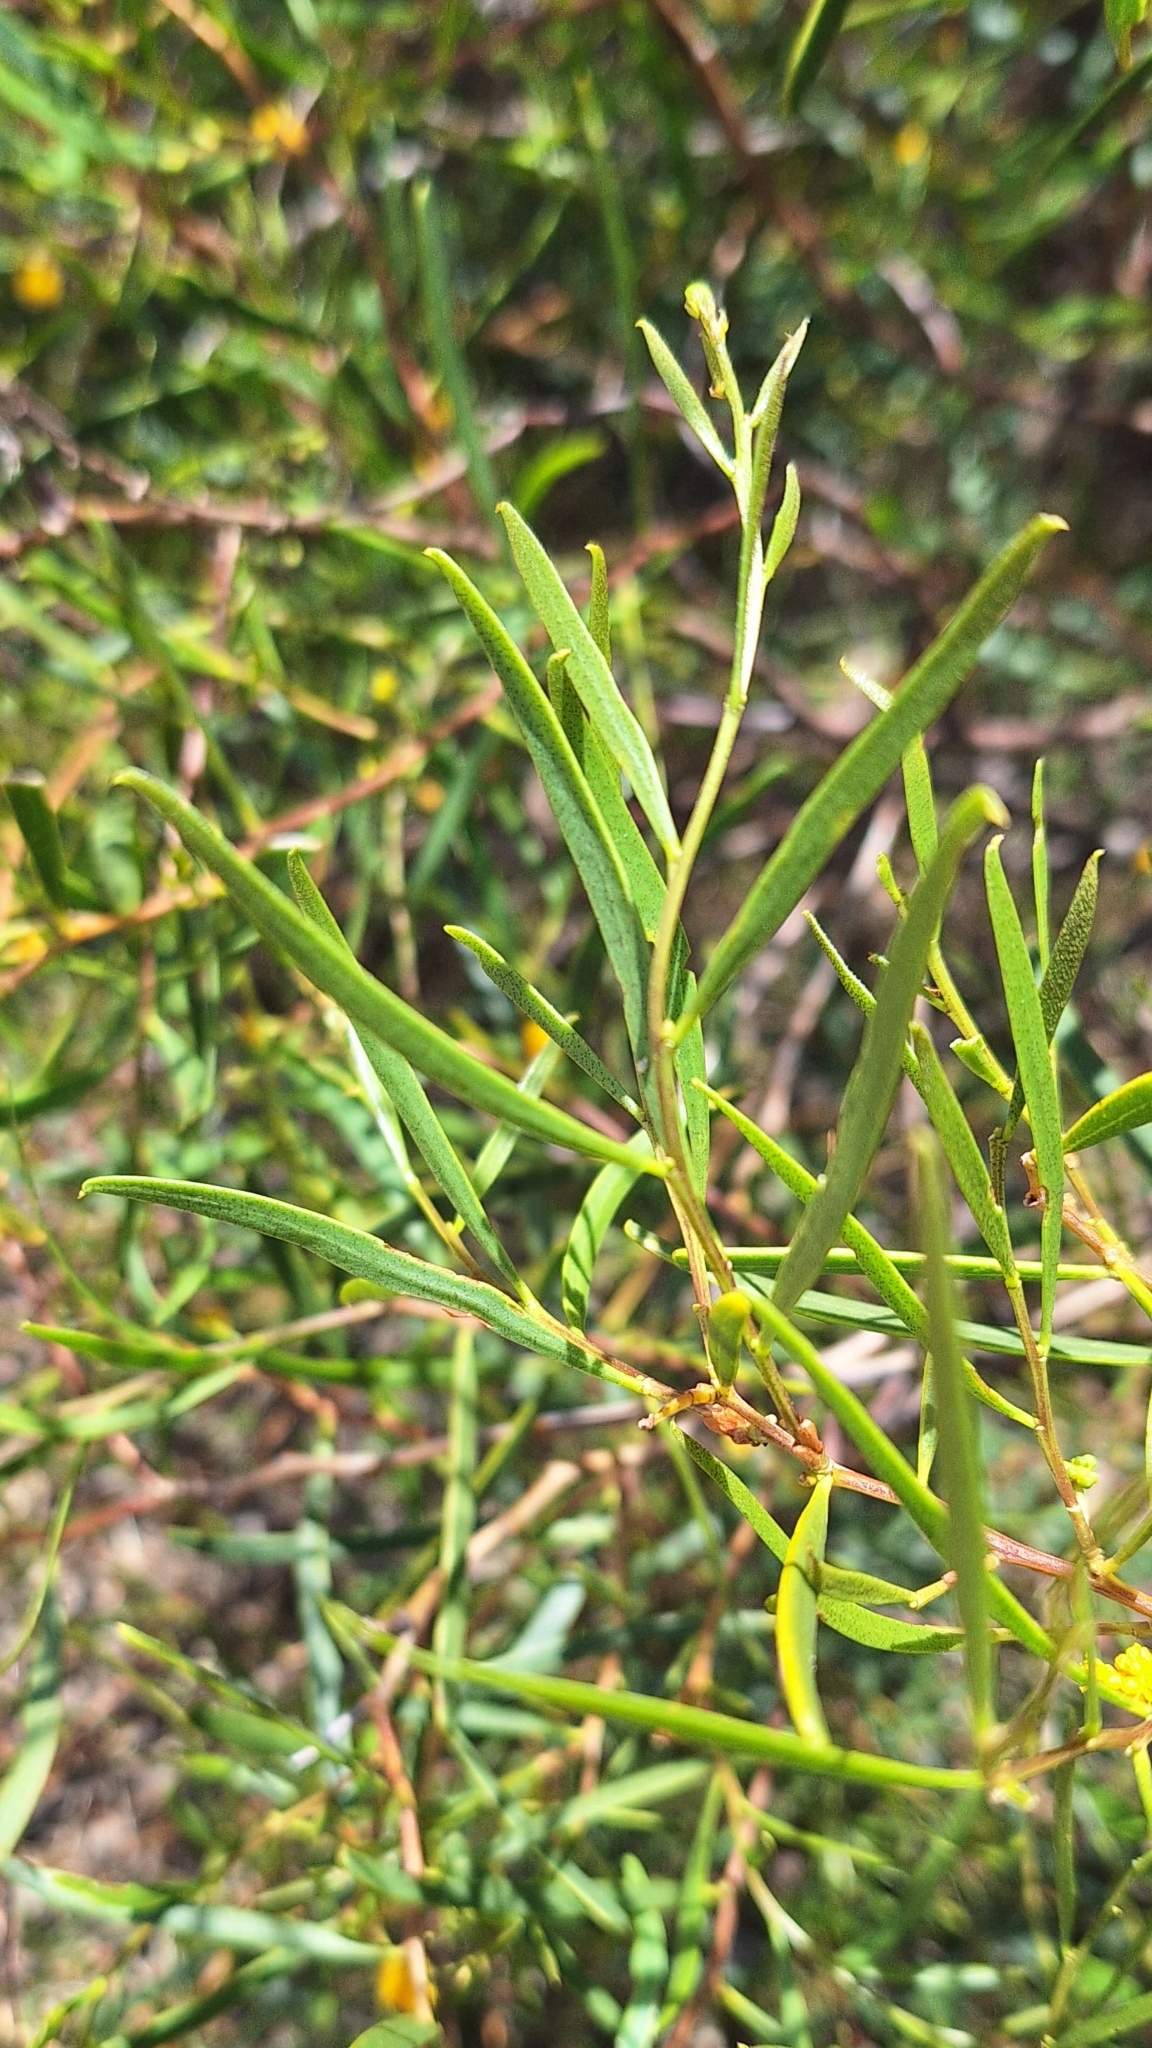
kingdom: Plantae
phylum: Tracheophyta
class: Magnoliopsida
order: Fabales
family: Fabaceae
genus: Acacia
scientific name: Acacia ligulata
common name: Dune wattle
